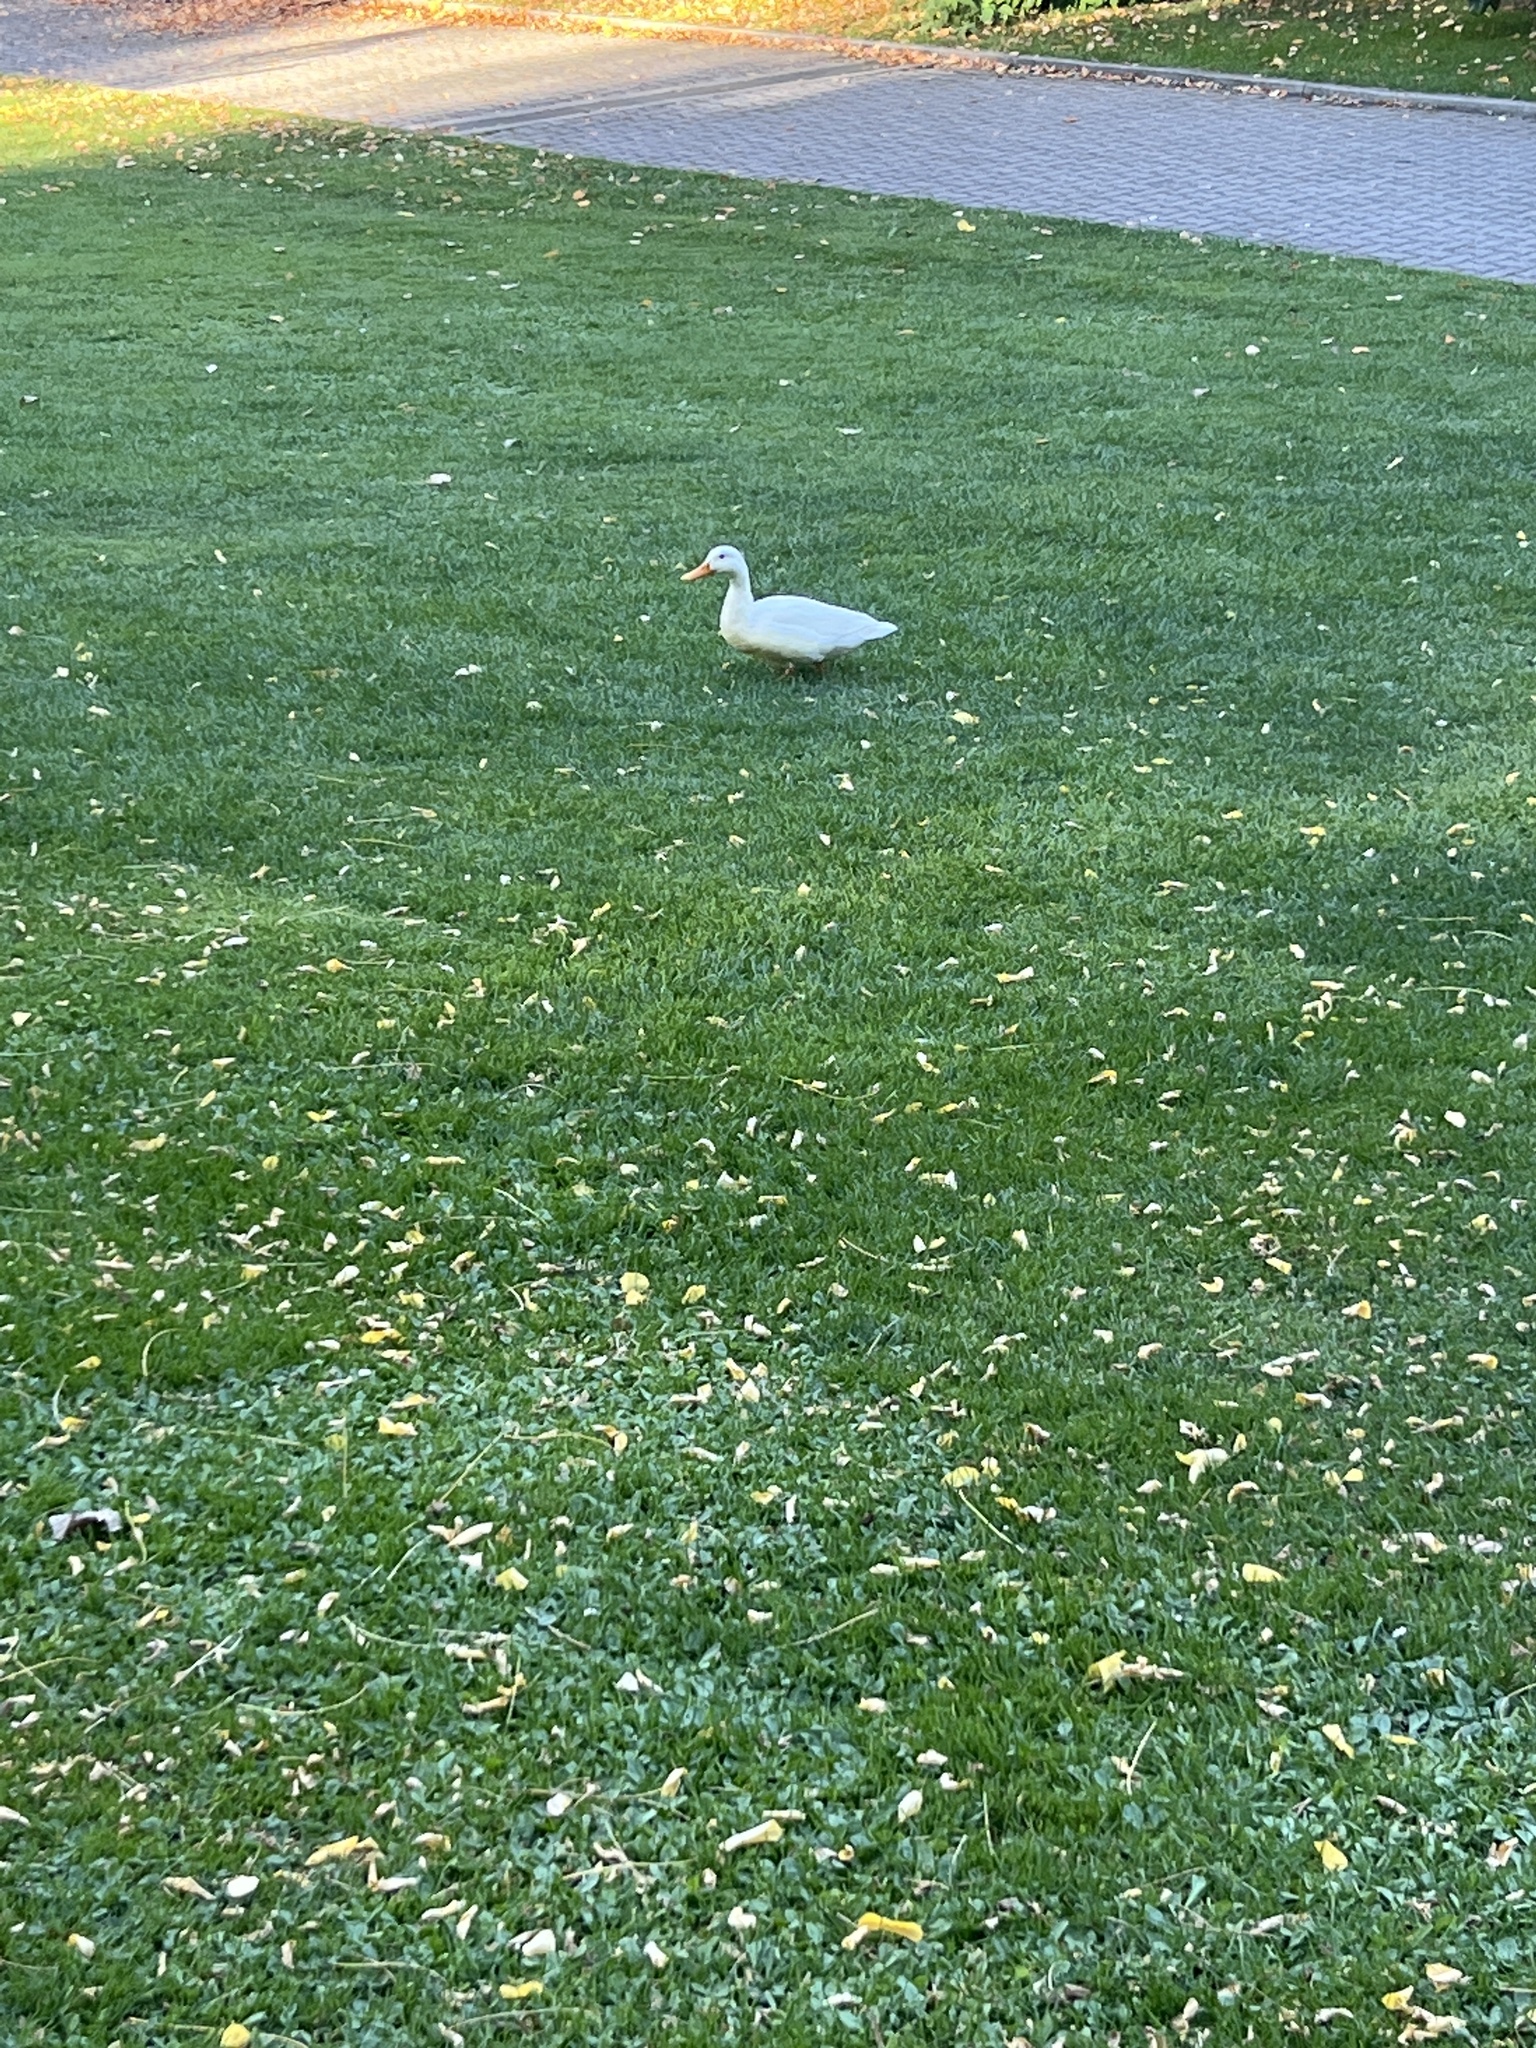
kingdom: Animalia
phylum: Chordata
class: Aves
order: Anseriformes
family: Anatidae
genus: Anas
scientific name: Anas platyrhynchos
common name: Mallard
